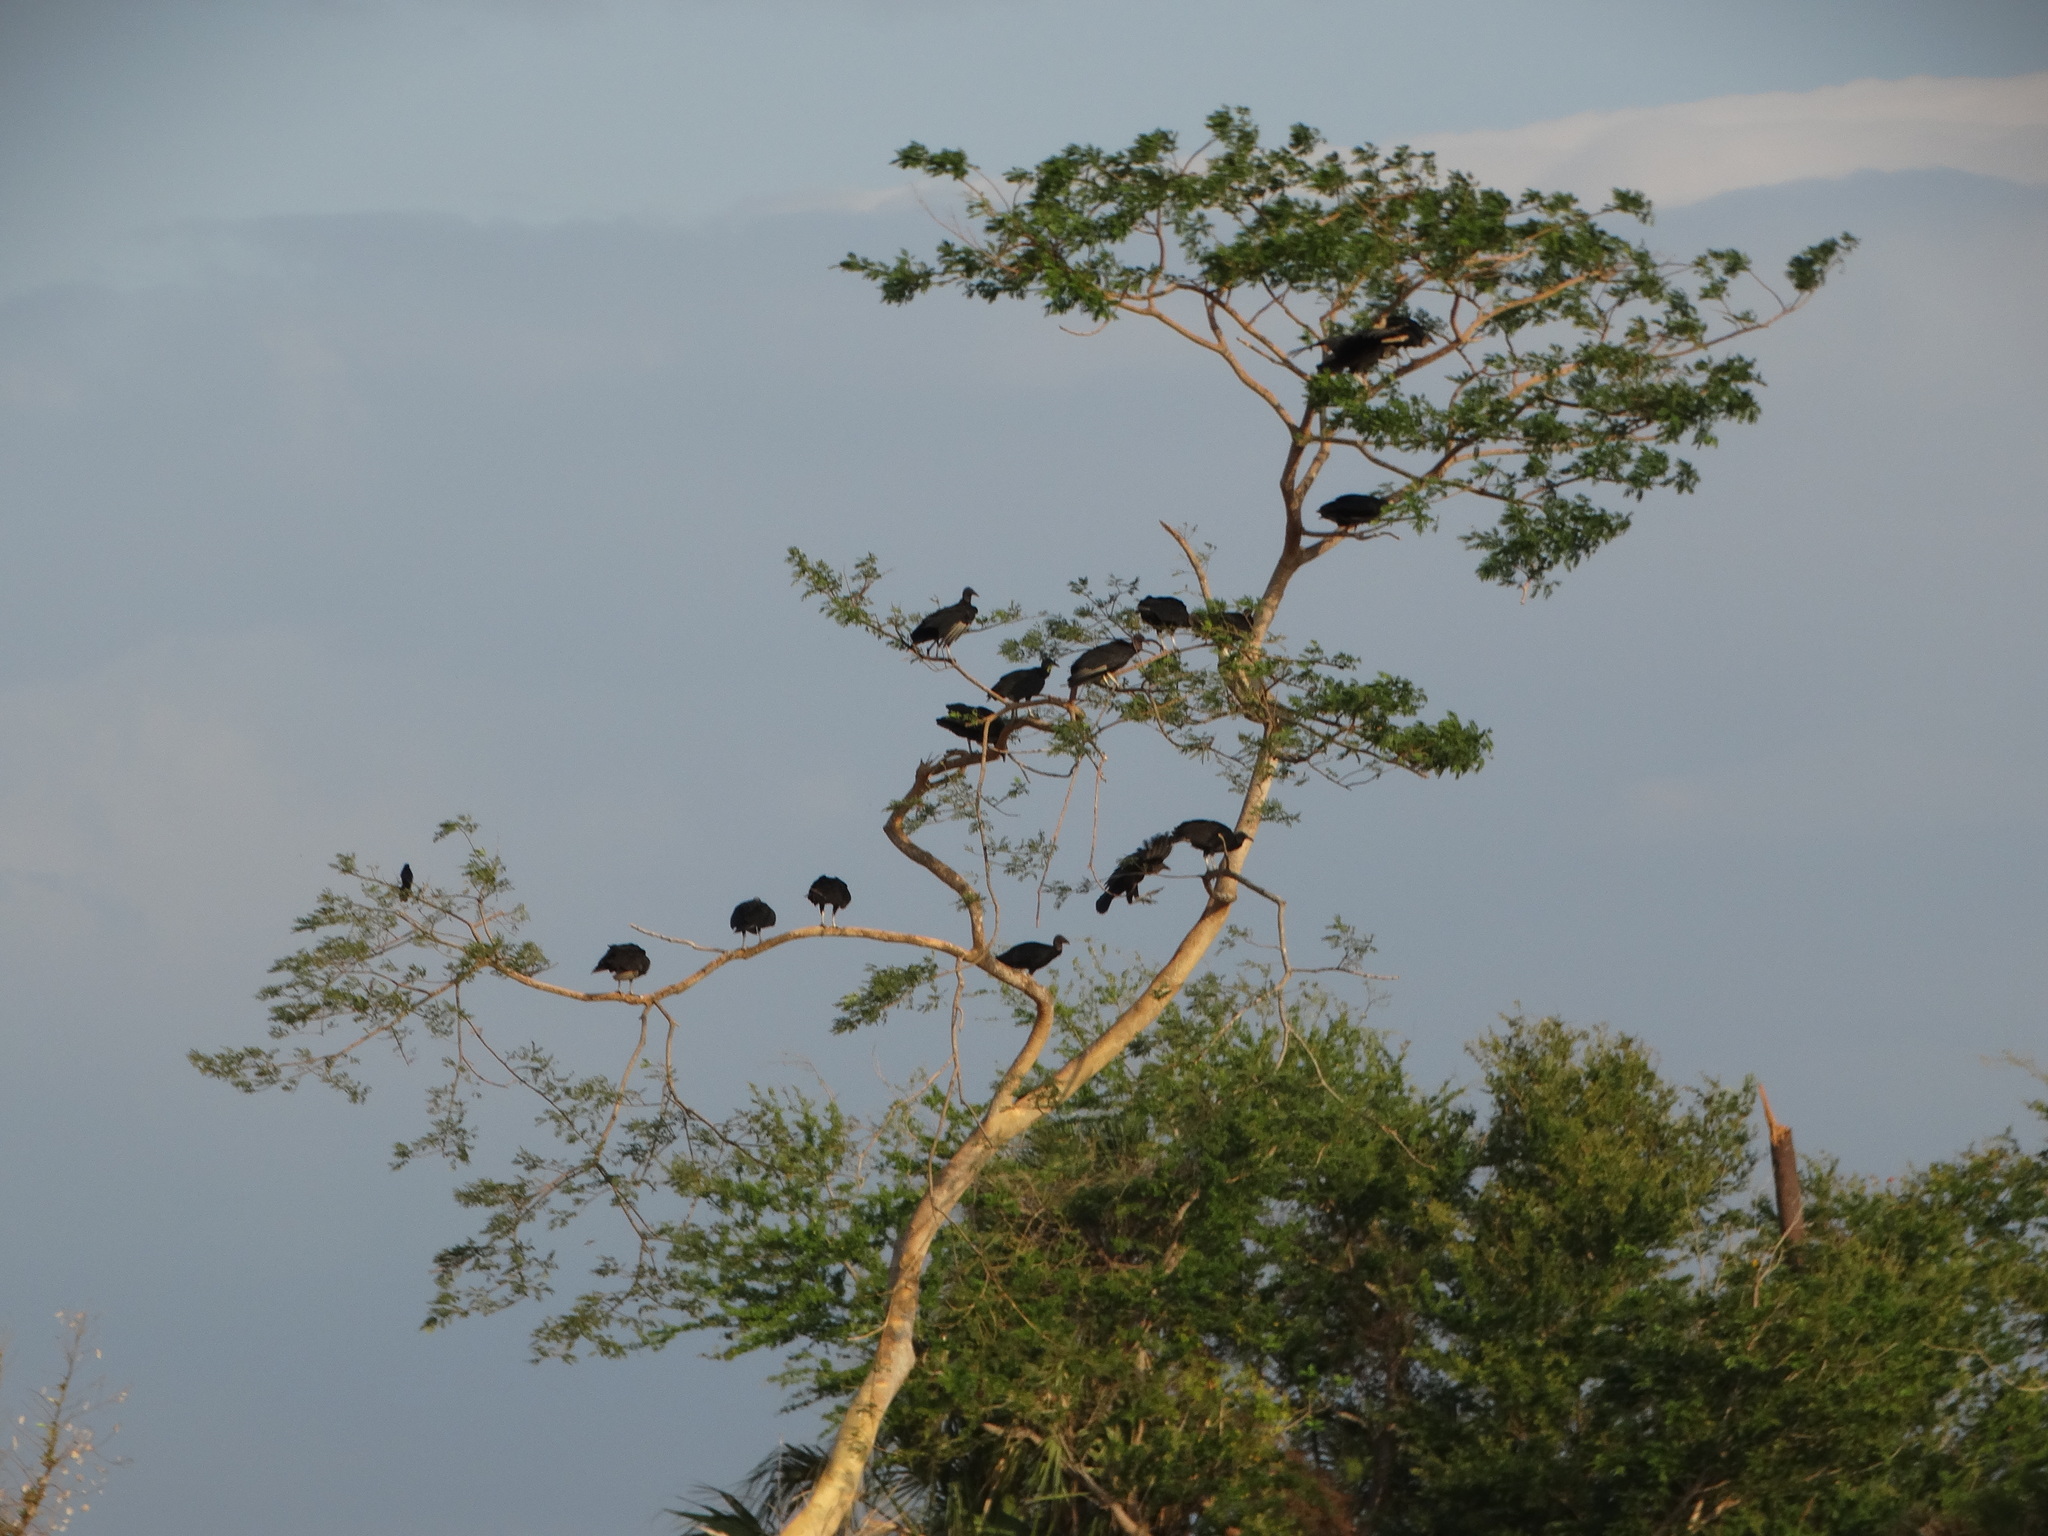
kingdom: Animalia
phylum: Chordata
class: Aves
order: Accipitriformes
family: Cathartidae
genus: Coragyps
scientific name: Coragyps atratus
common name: Black vulture
